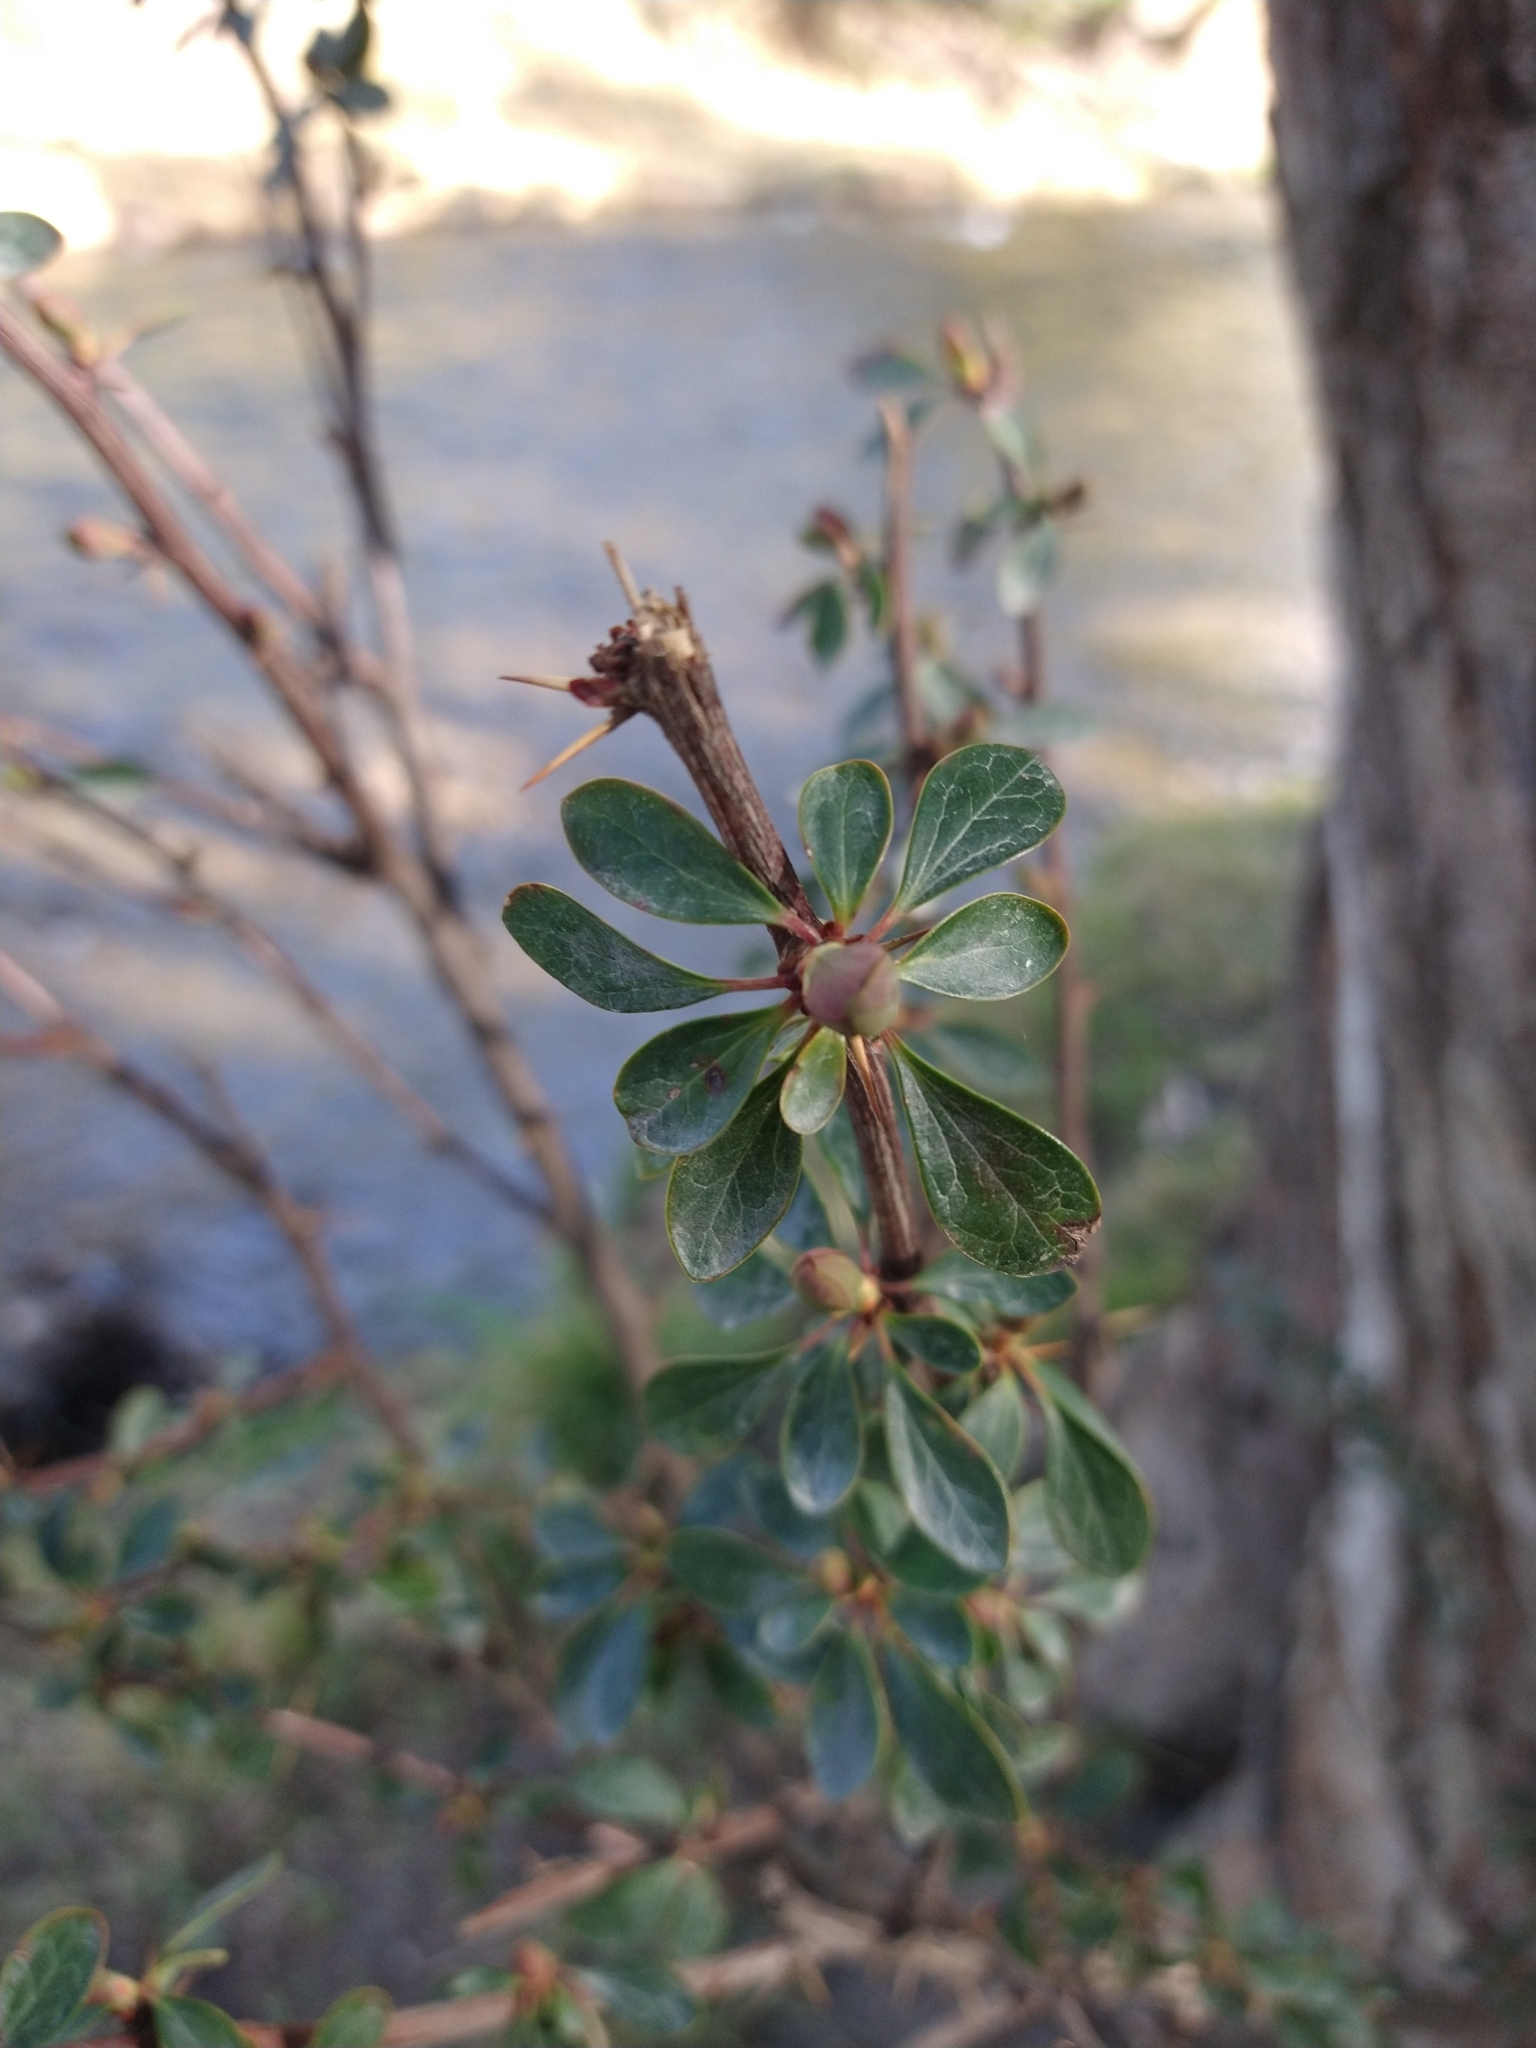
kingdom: Plantae
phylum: Tracheophyta
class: Magnoliopsida
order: Ranunculales
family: Berberidaceae
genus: Berberis
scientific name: Berberis microphylla
